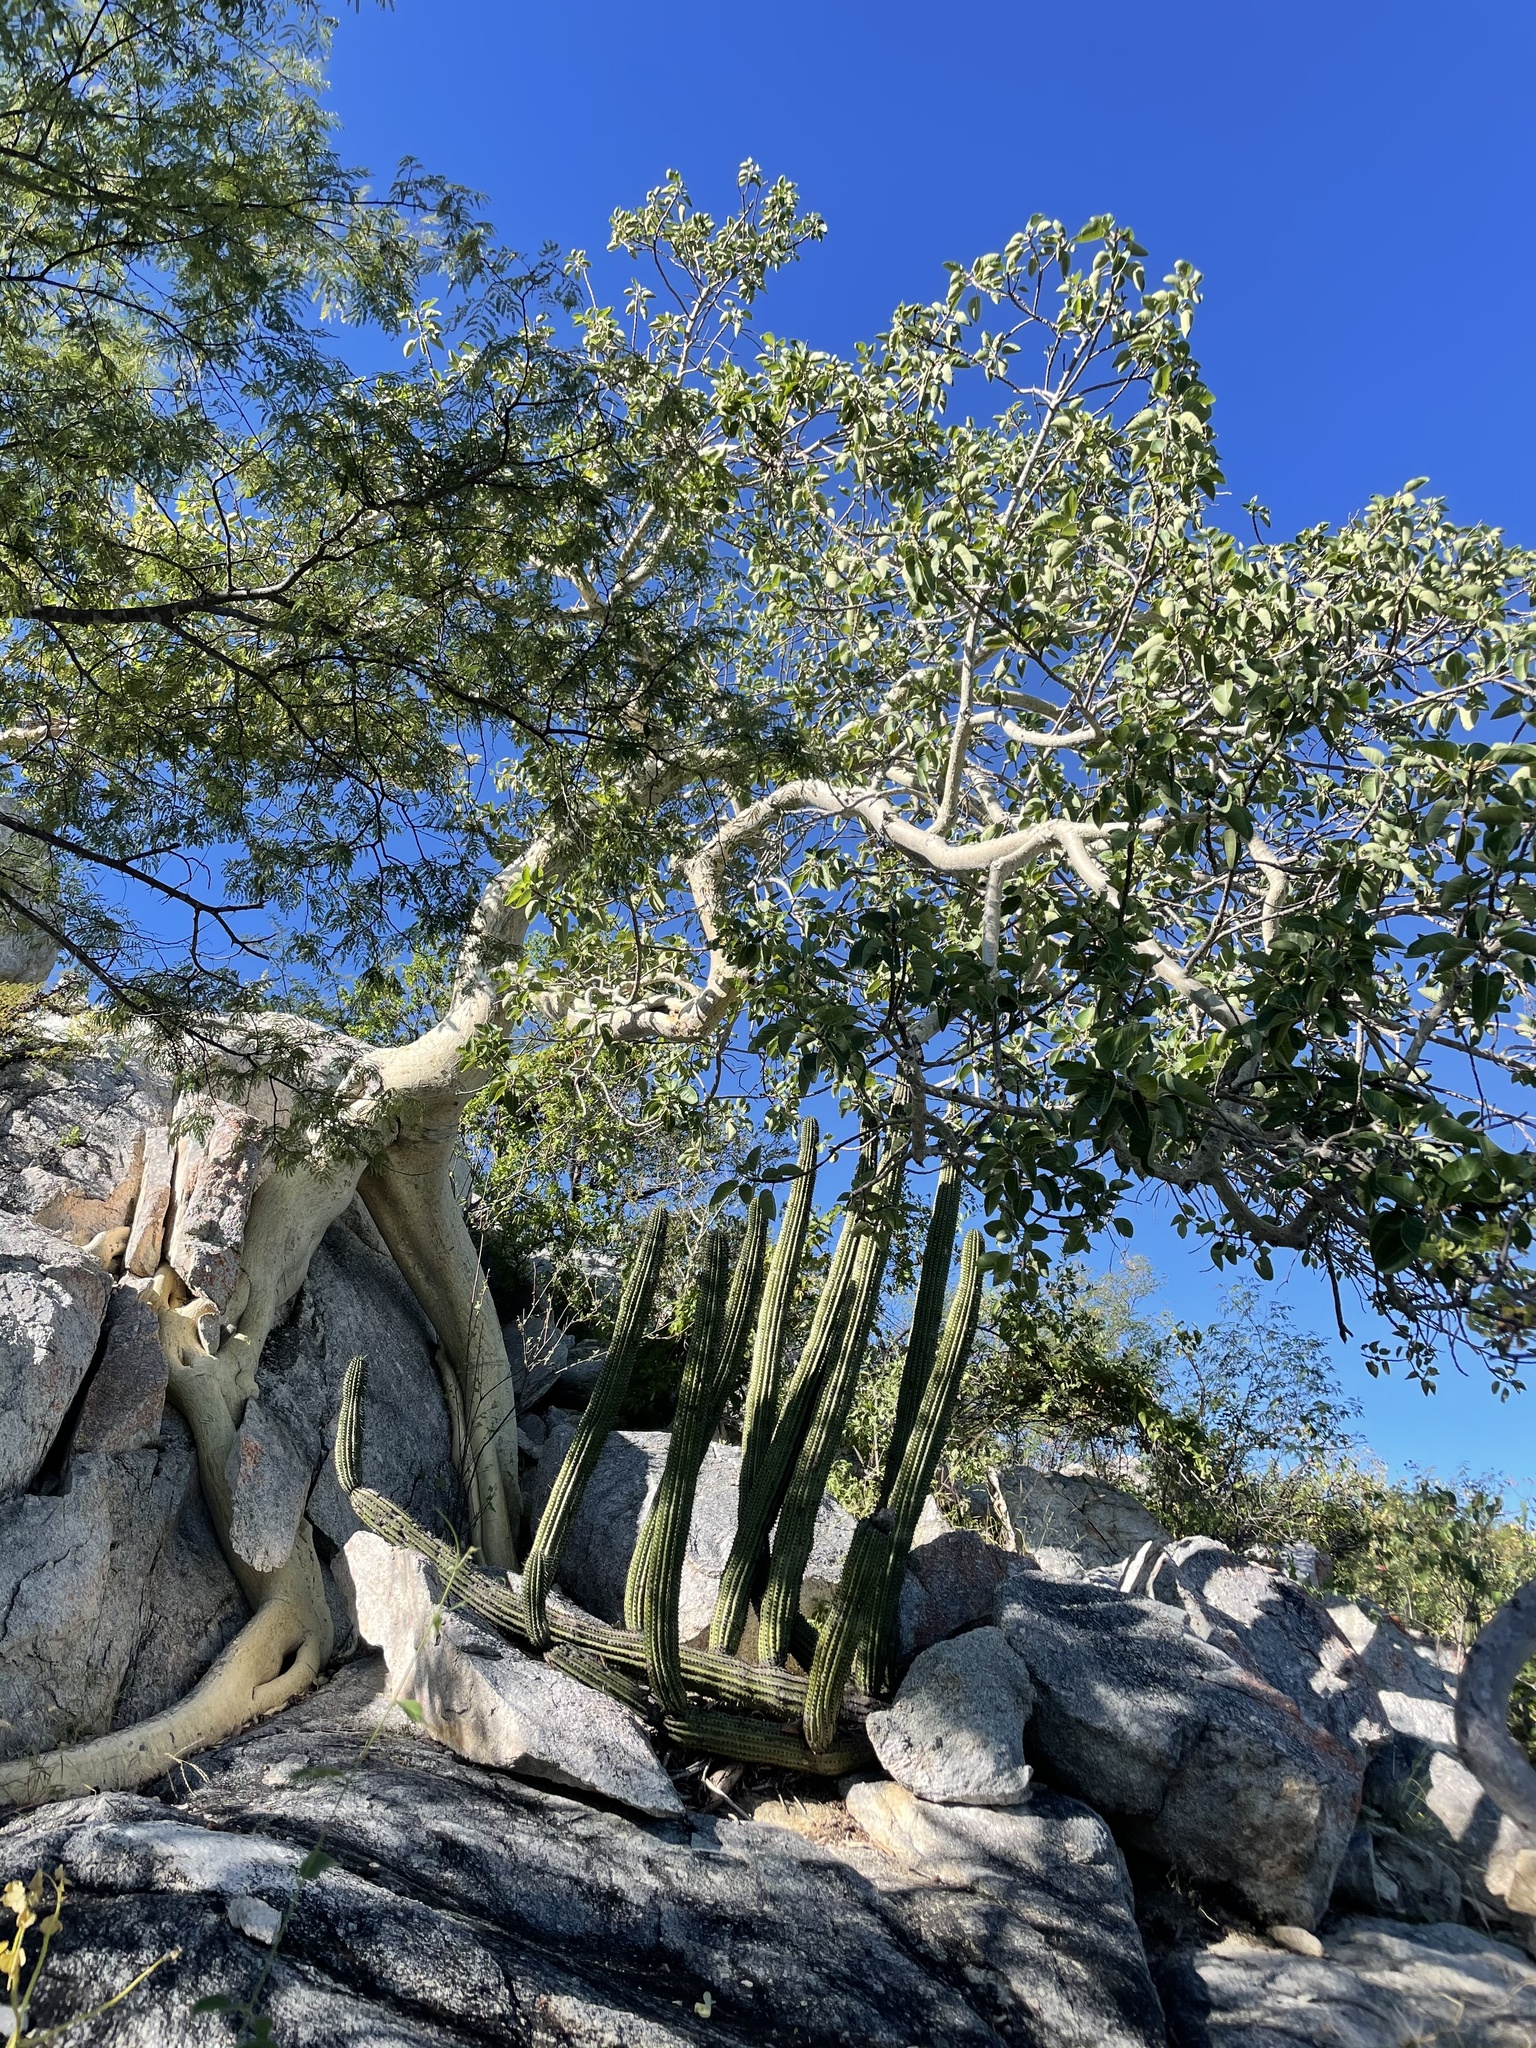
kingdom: Plantae
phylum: Tracheophyta
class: Magnoliopsida
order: Rosales
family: Moraceae
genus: Ficus
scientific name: Ficus petiolaris
